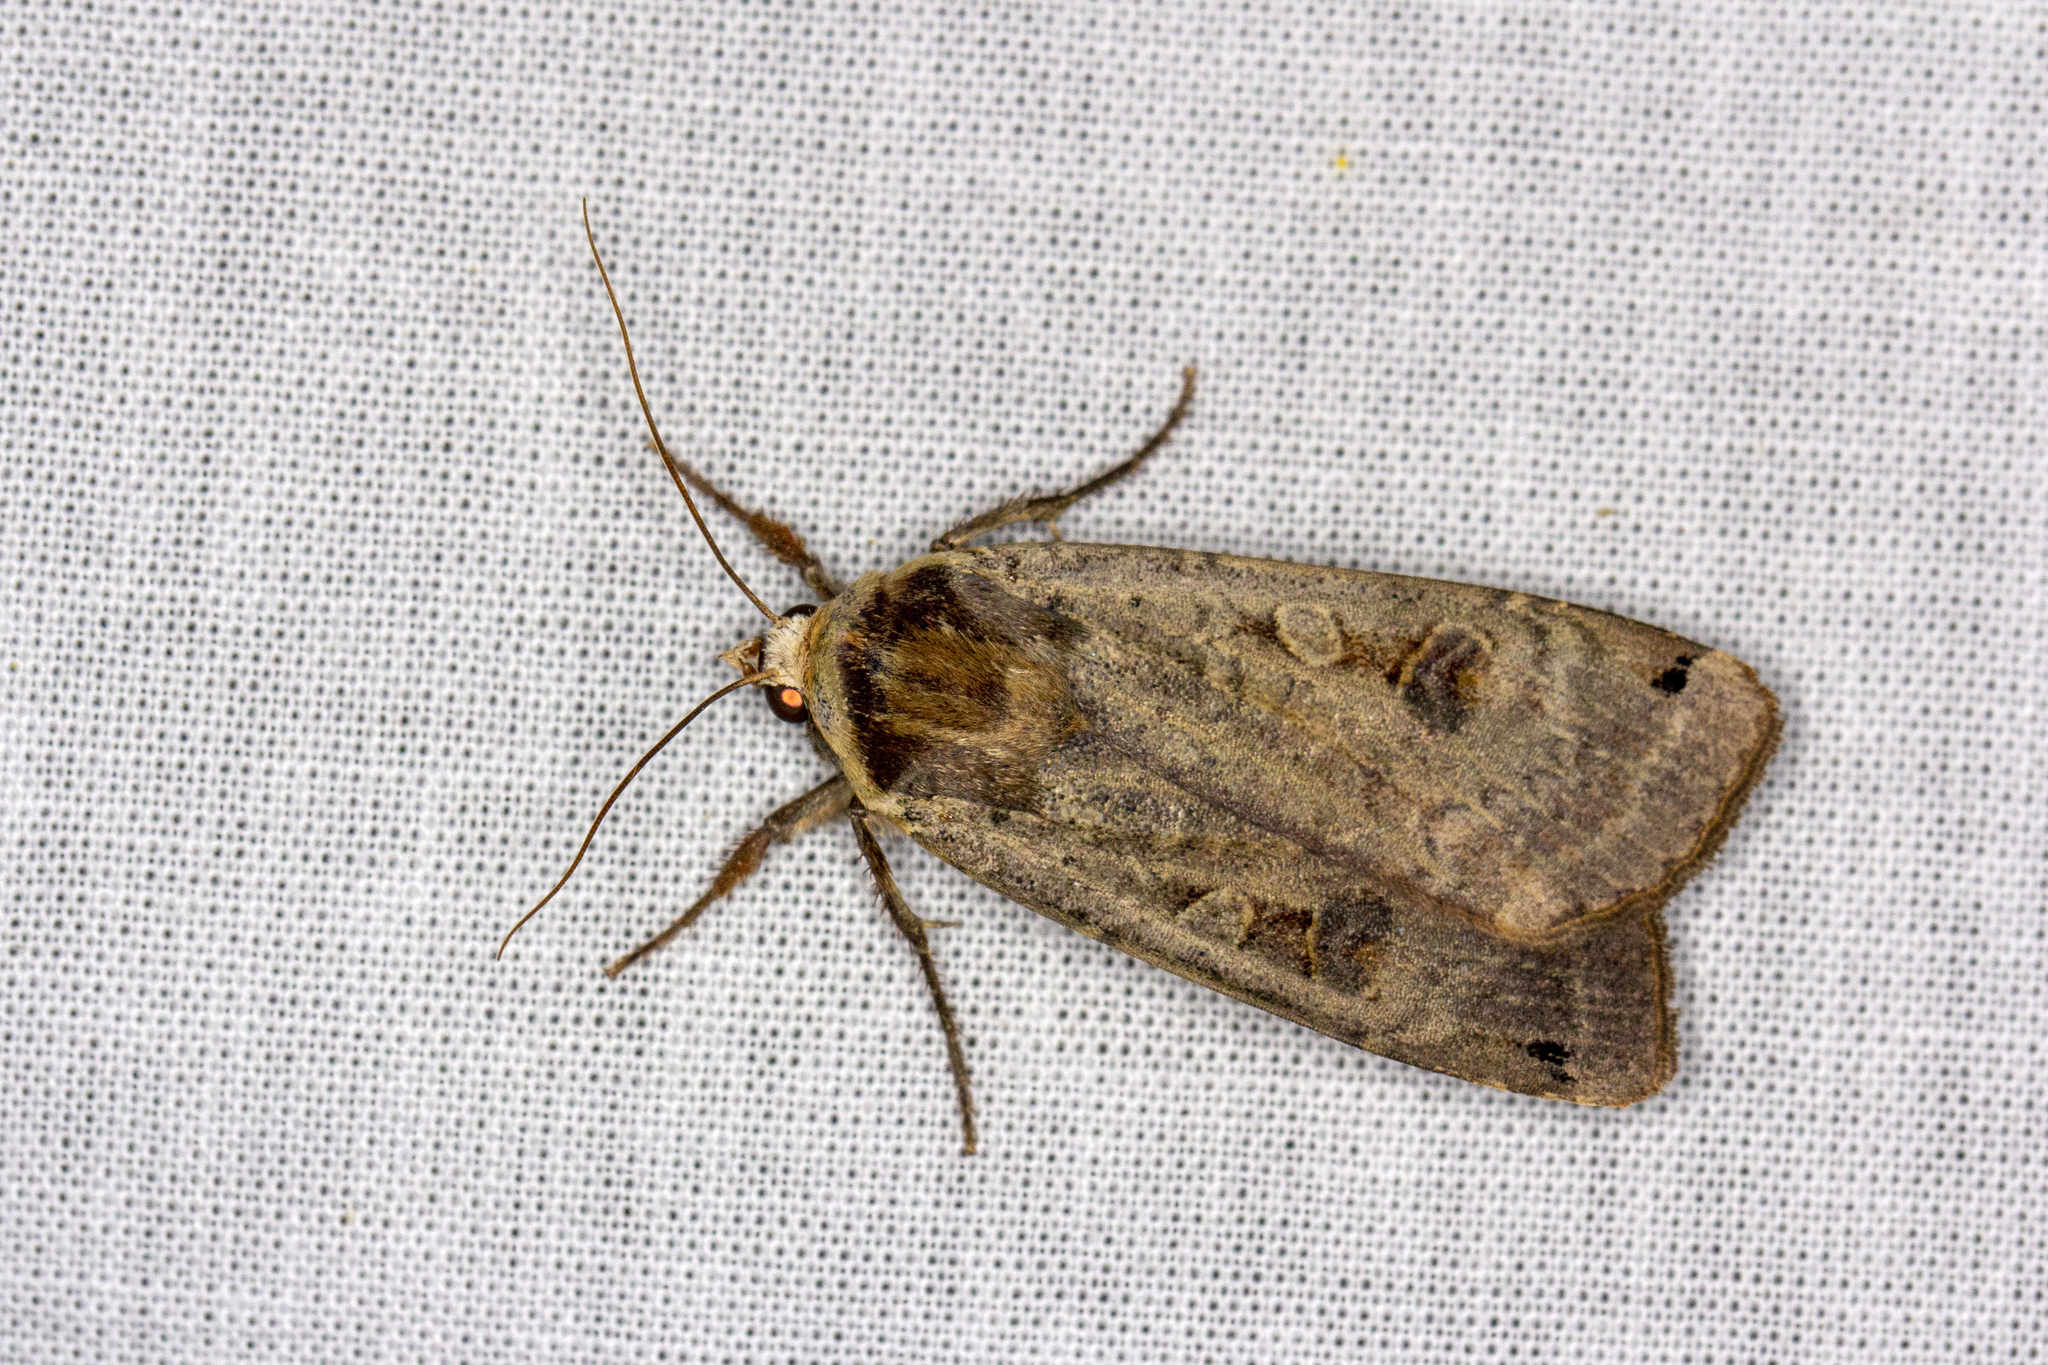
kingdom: Animalia
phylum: Arthropoda
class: Insecta
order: Lepidoptera
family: Noctuidae
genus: Noctua
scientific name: Noctua pronuba
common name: Large yellow underwing
